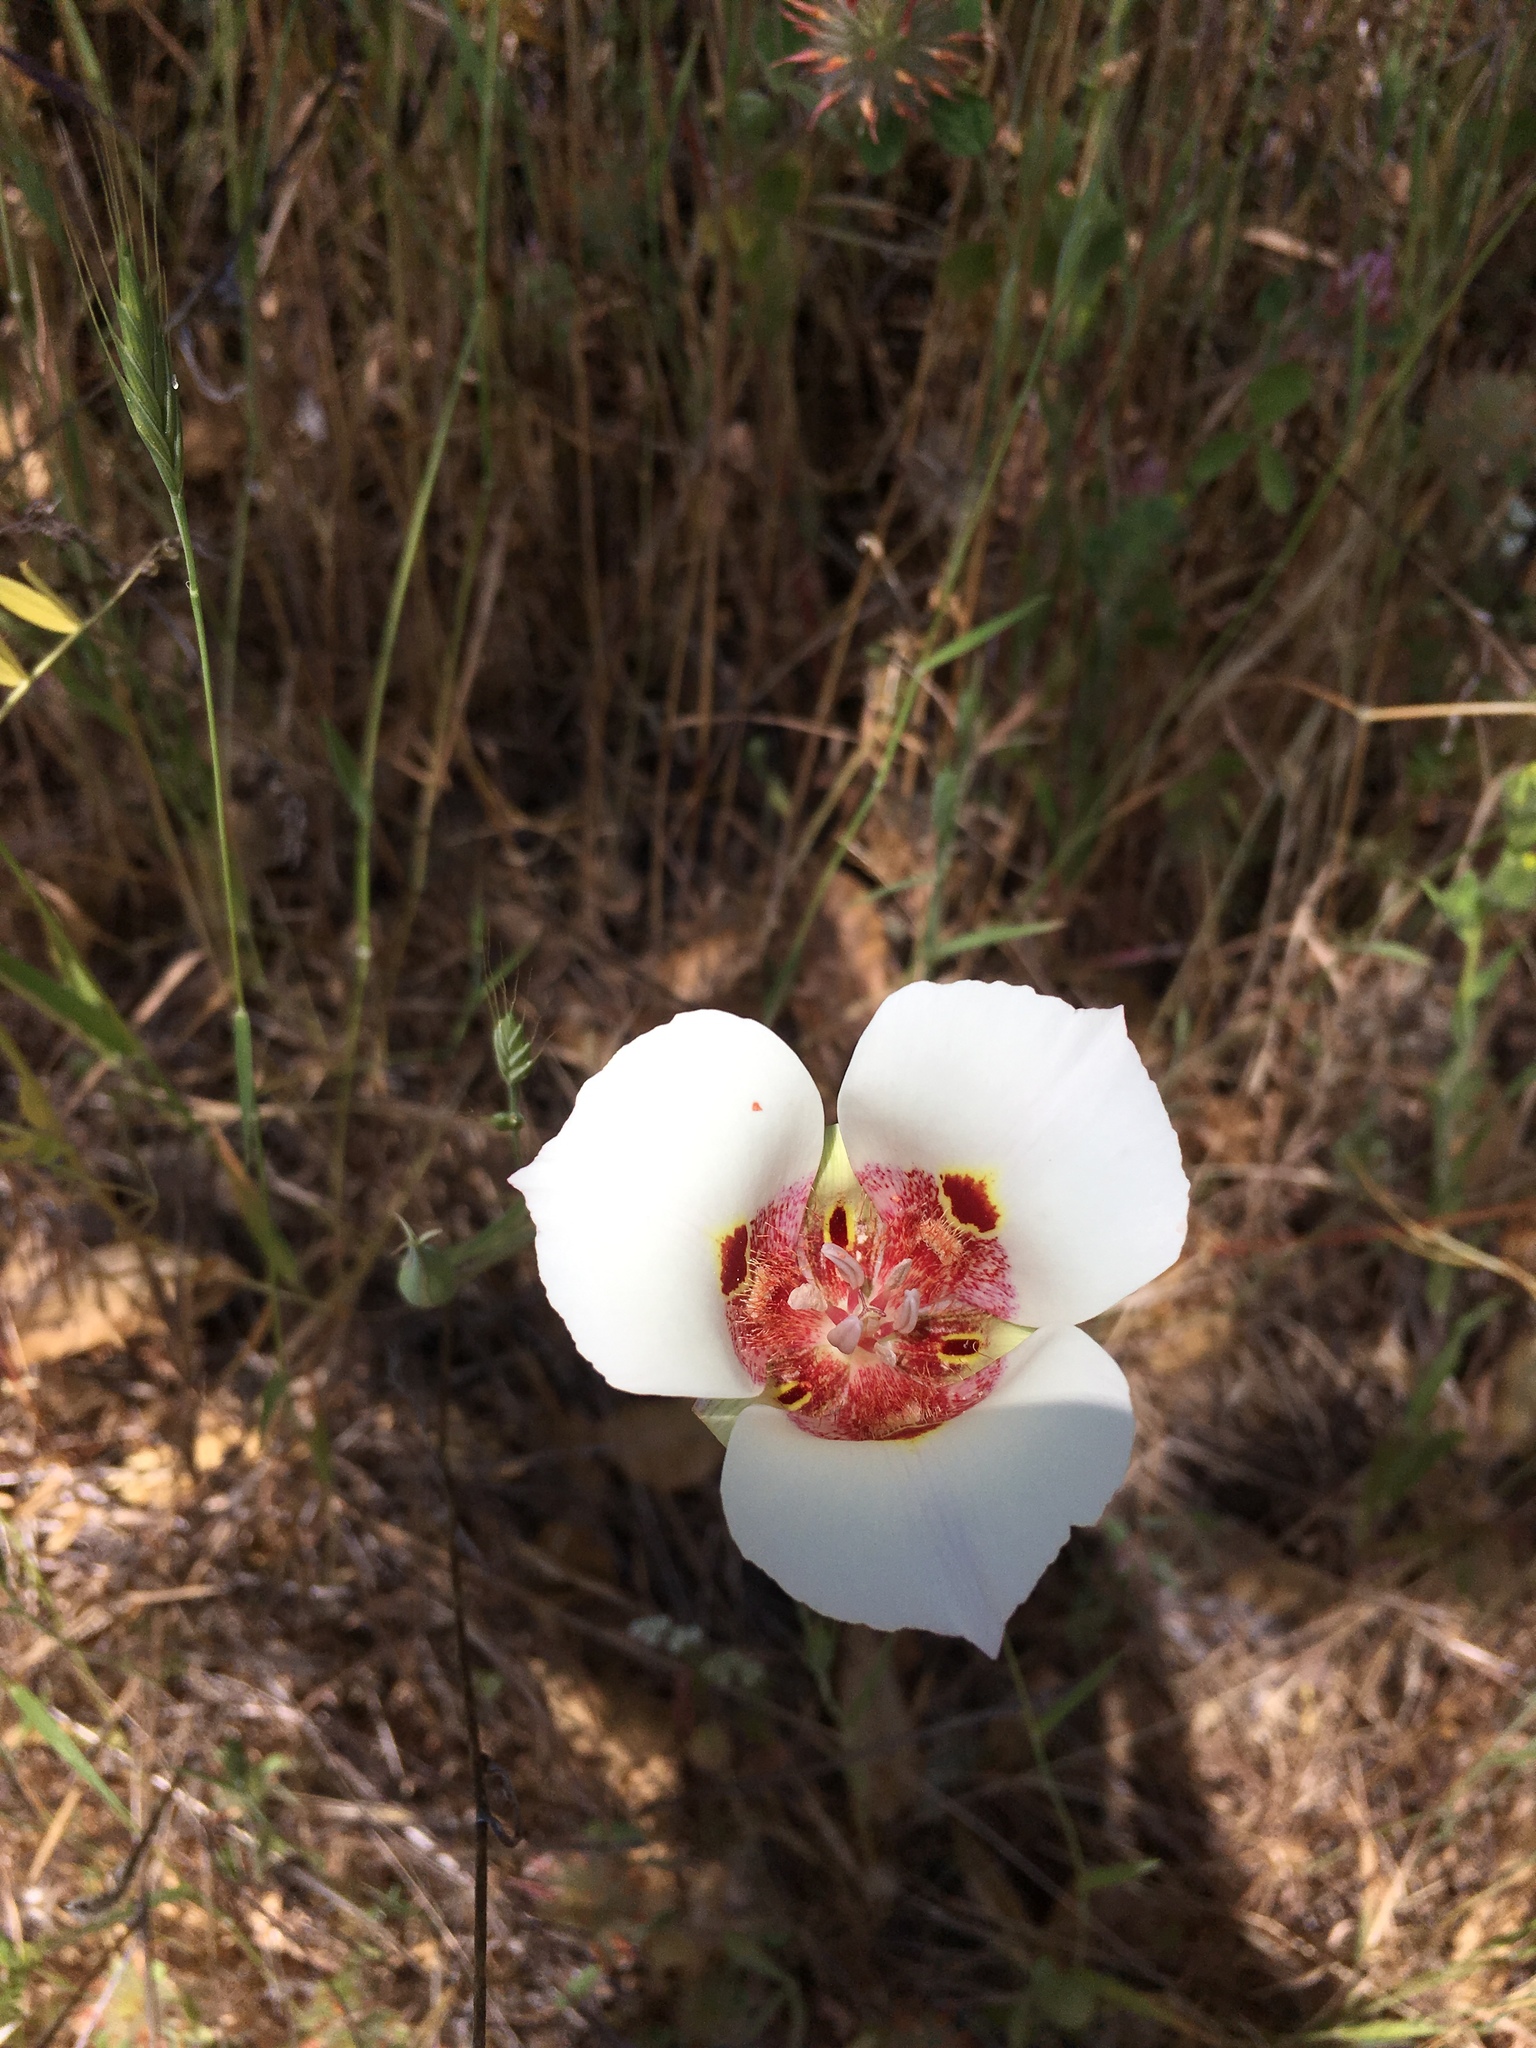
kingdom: Plantae
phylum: Tracheophyta
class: Liliopsida
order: Liliales
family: Liliaceae
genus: Calochortus
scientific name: Calochortus venustus
